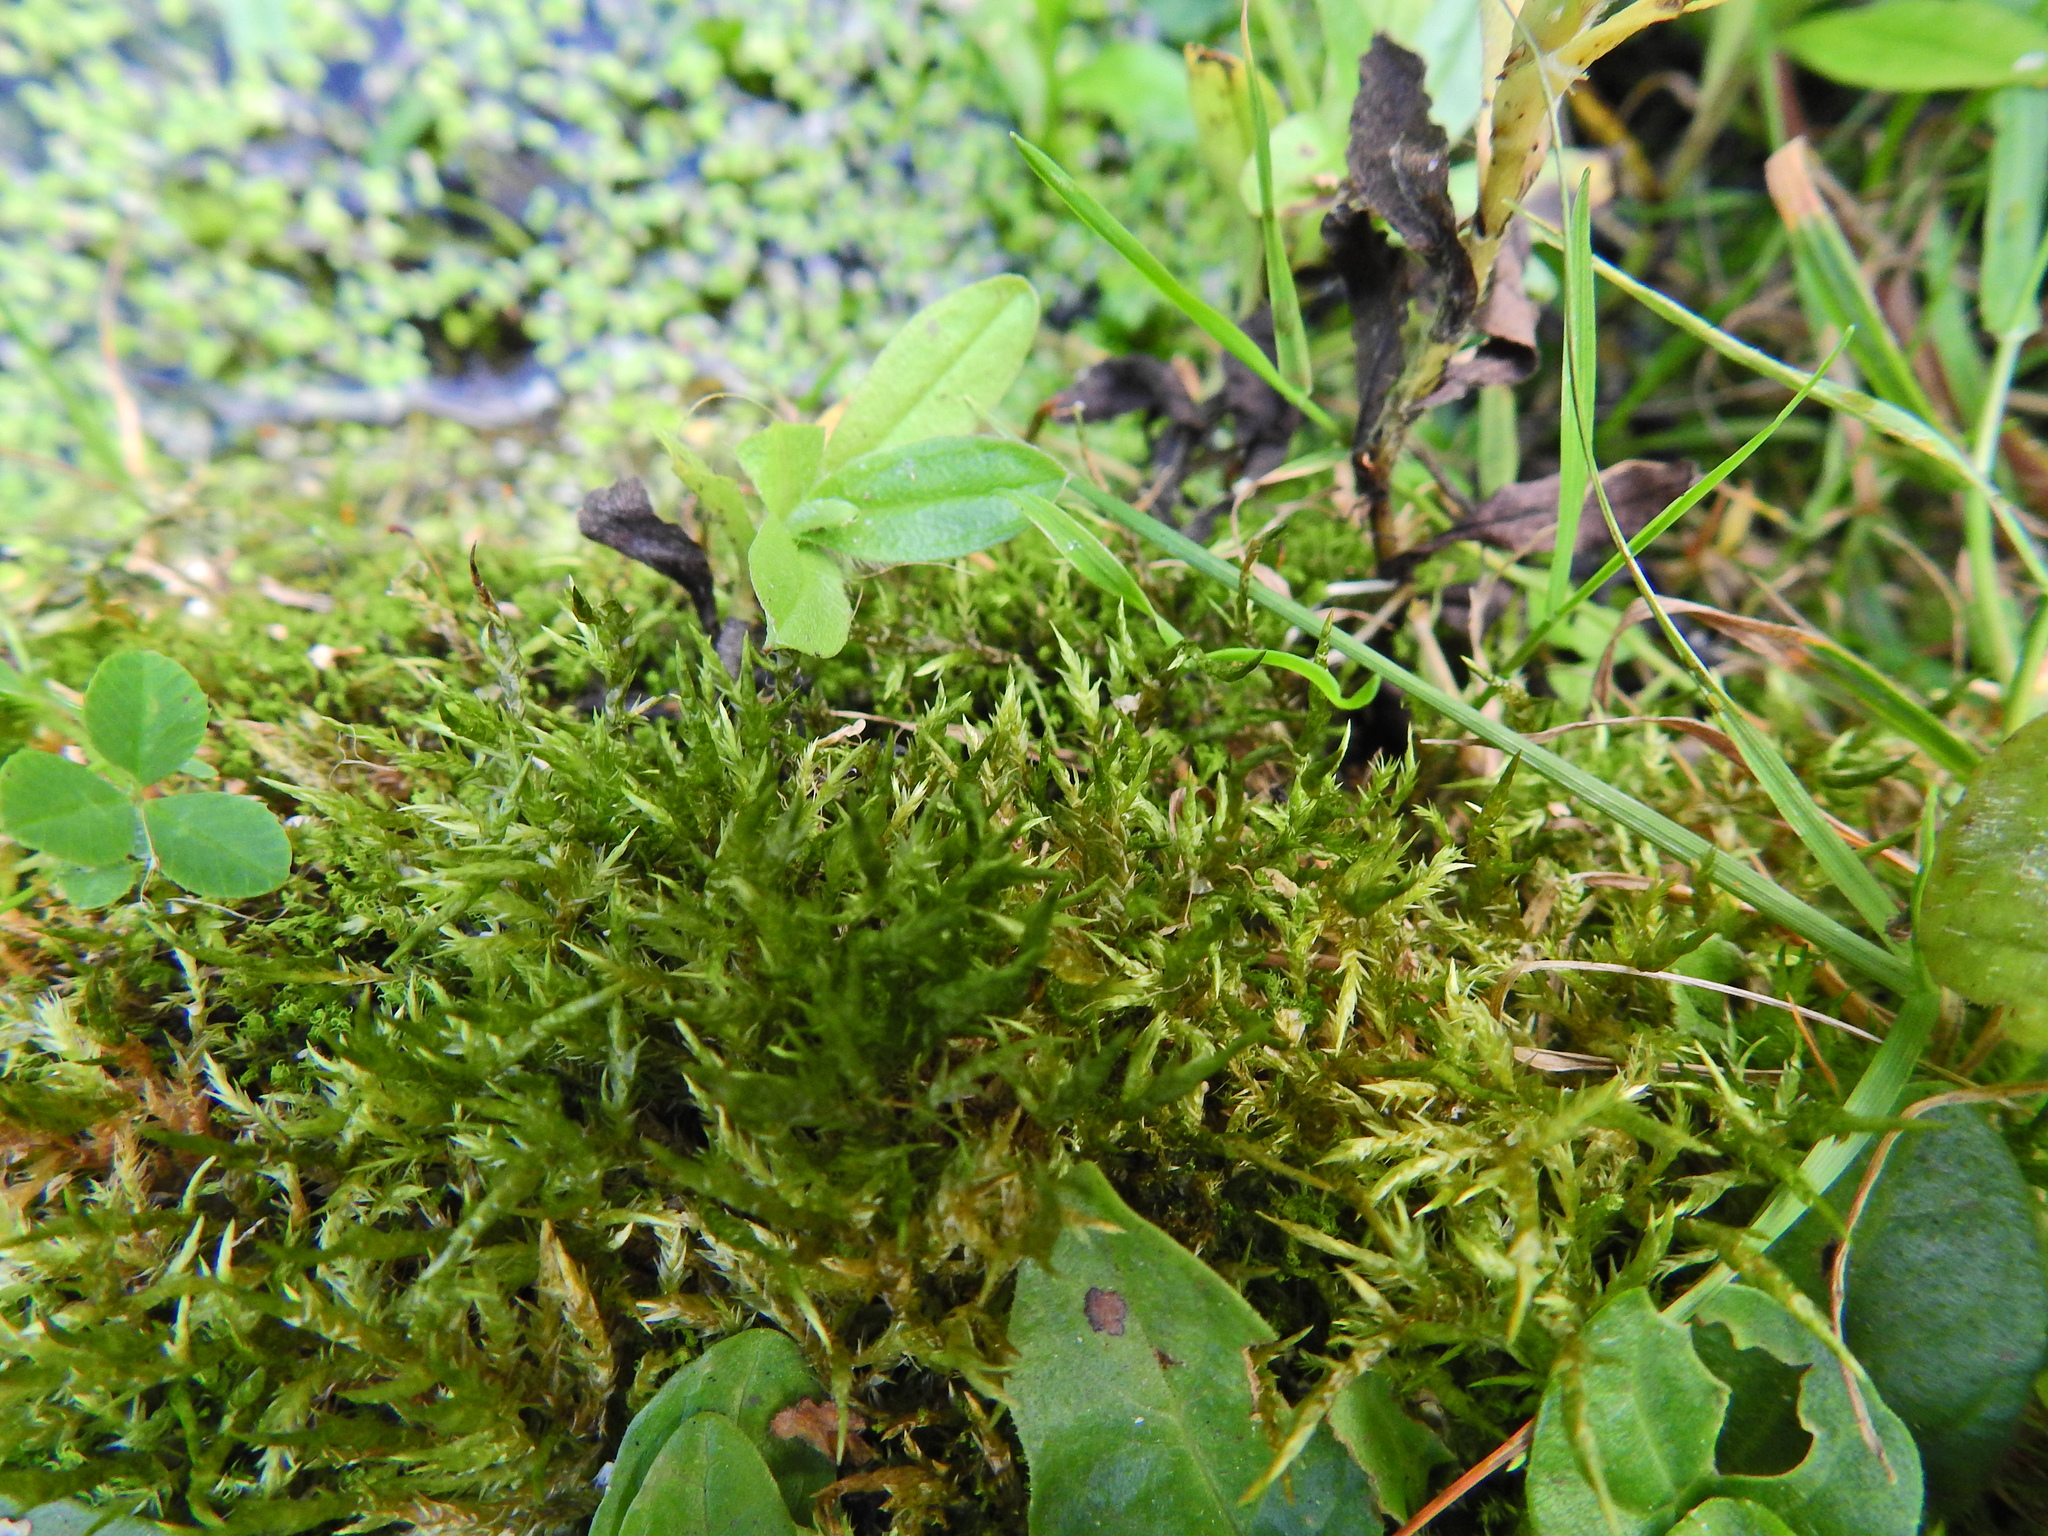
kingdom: Plantae
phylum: Bryophyta
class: Bryopsida
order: Hypnales
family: Pylaisiaceae
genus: Calliergonella
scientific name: Calliergonella cuspidata
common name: Common large wetland moss
